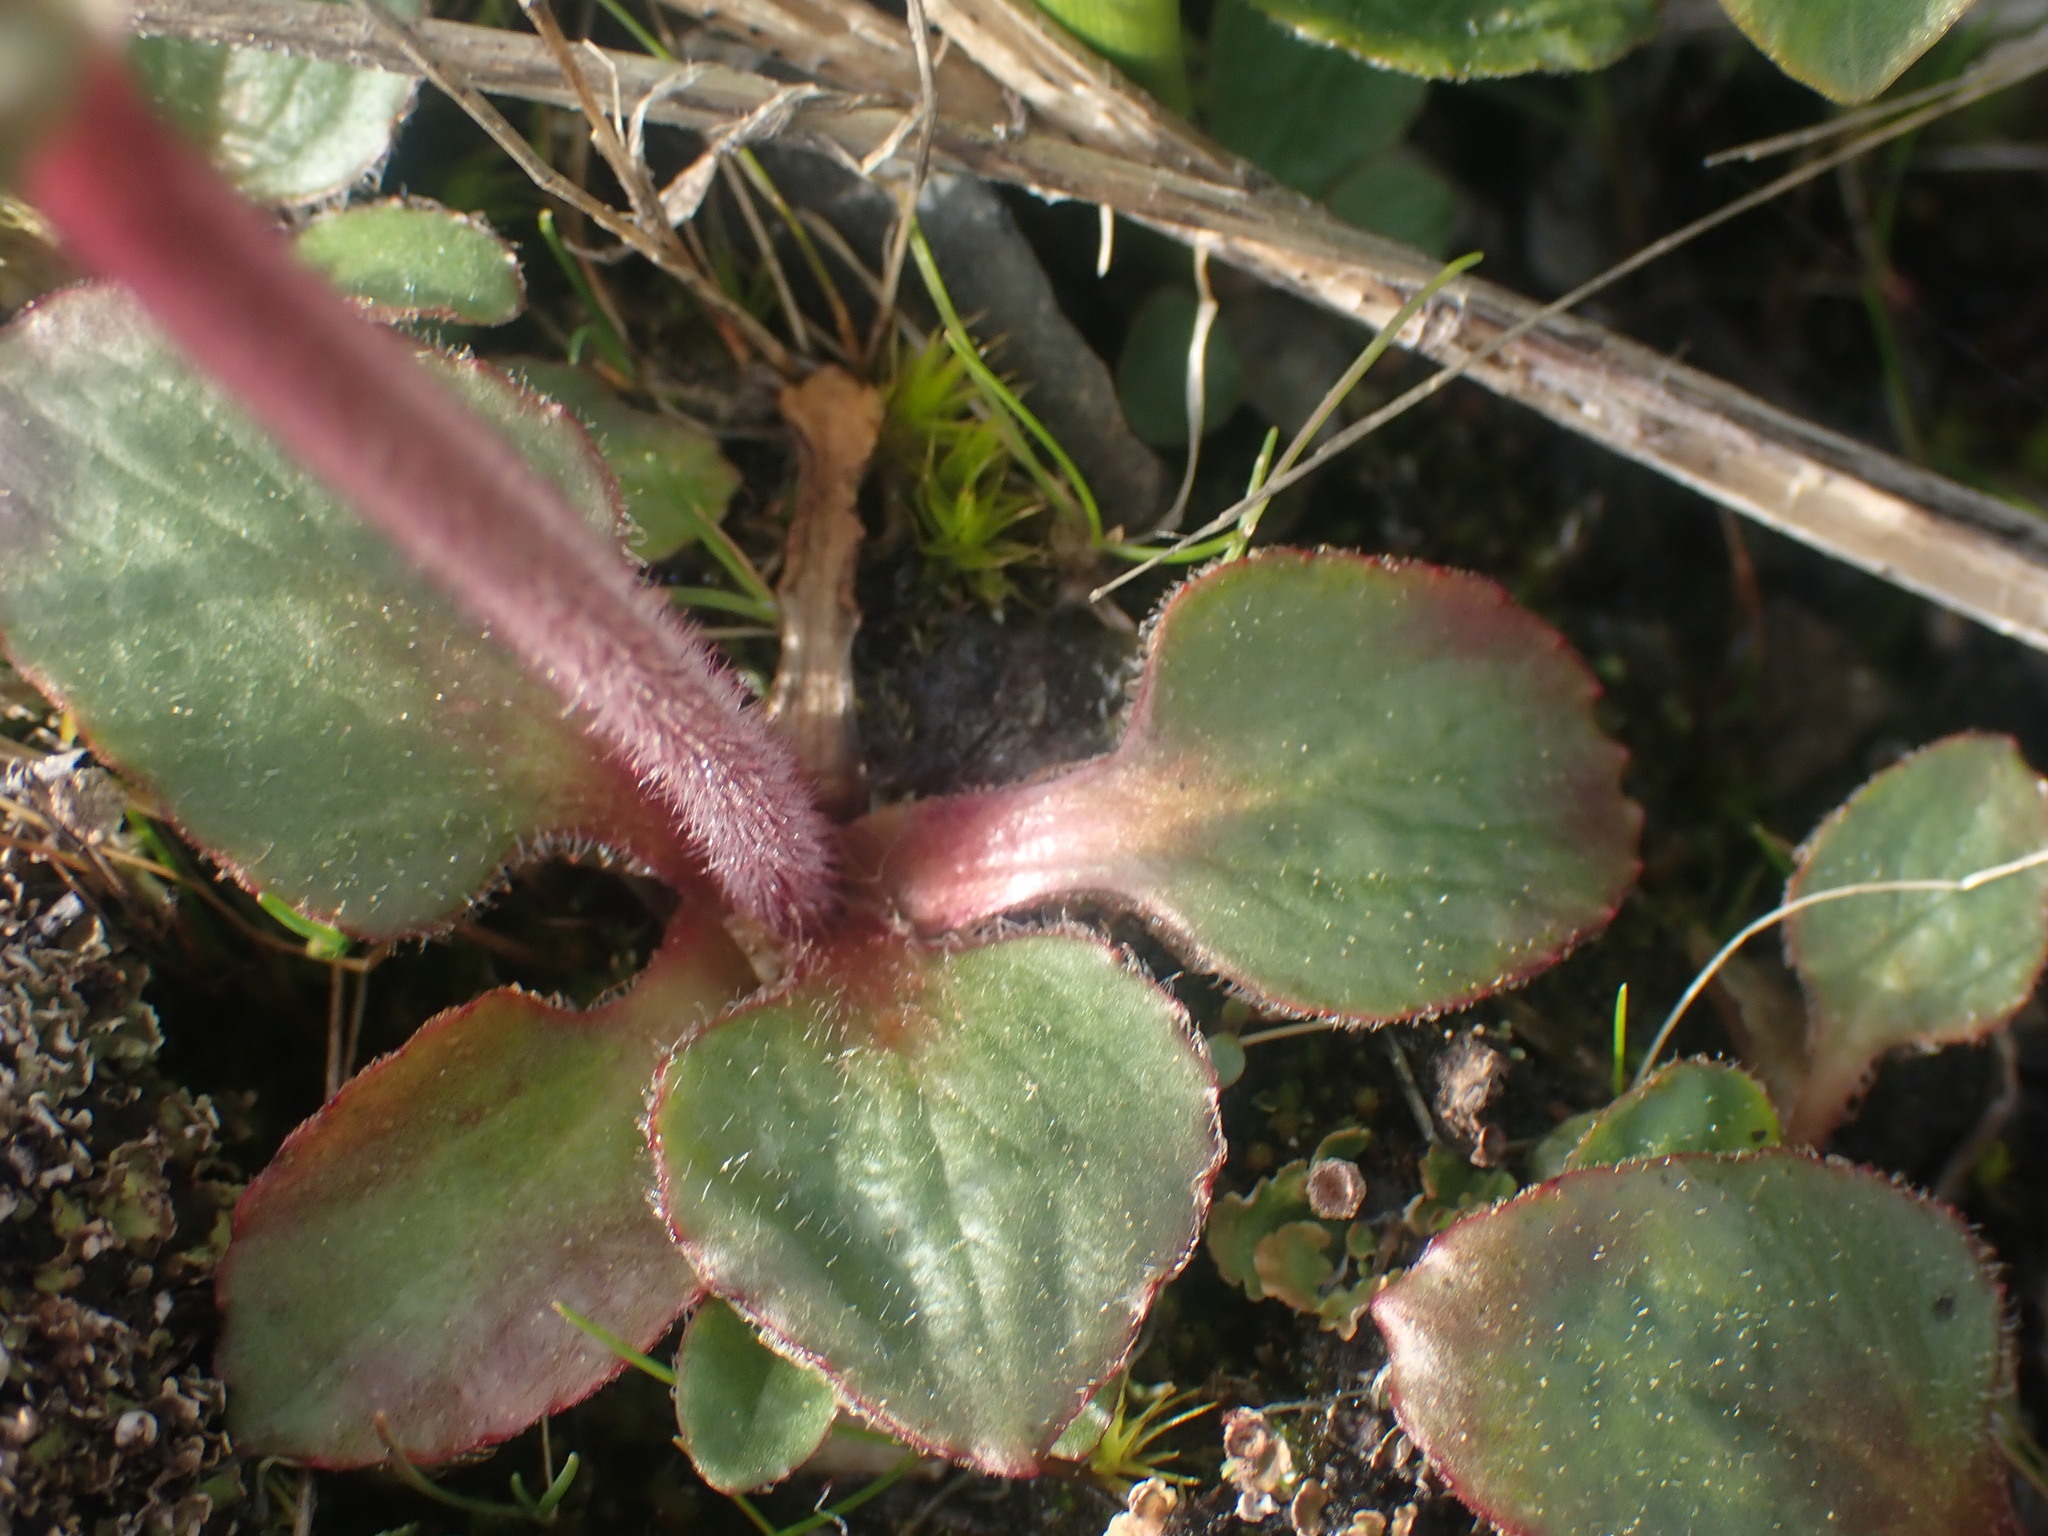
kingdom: Plantae
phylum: Tracheophyta
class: Magnoliopsida
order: Saxifragales
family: Saxifragaceae
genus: Micranthes
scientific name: Micranthes integrifolia
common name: Wholeleaf saxifrage
